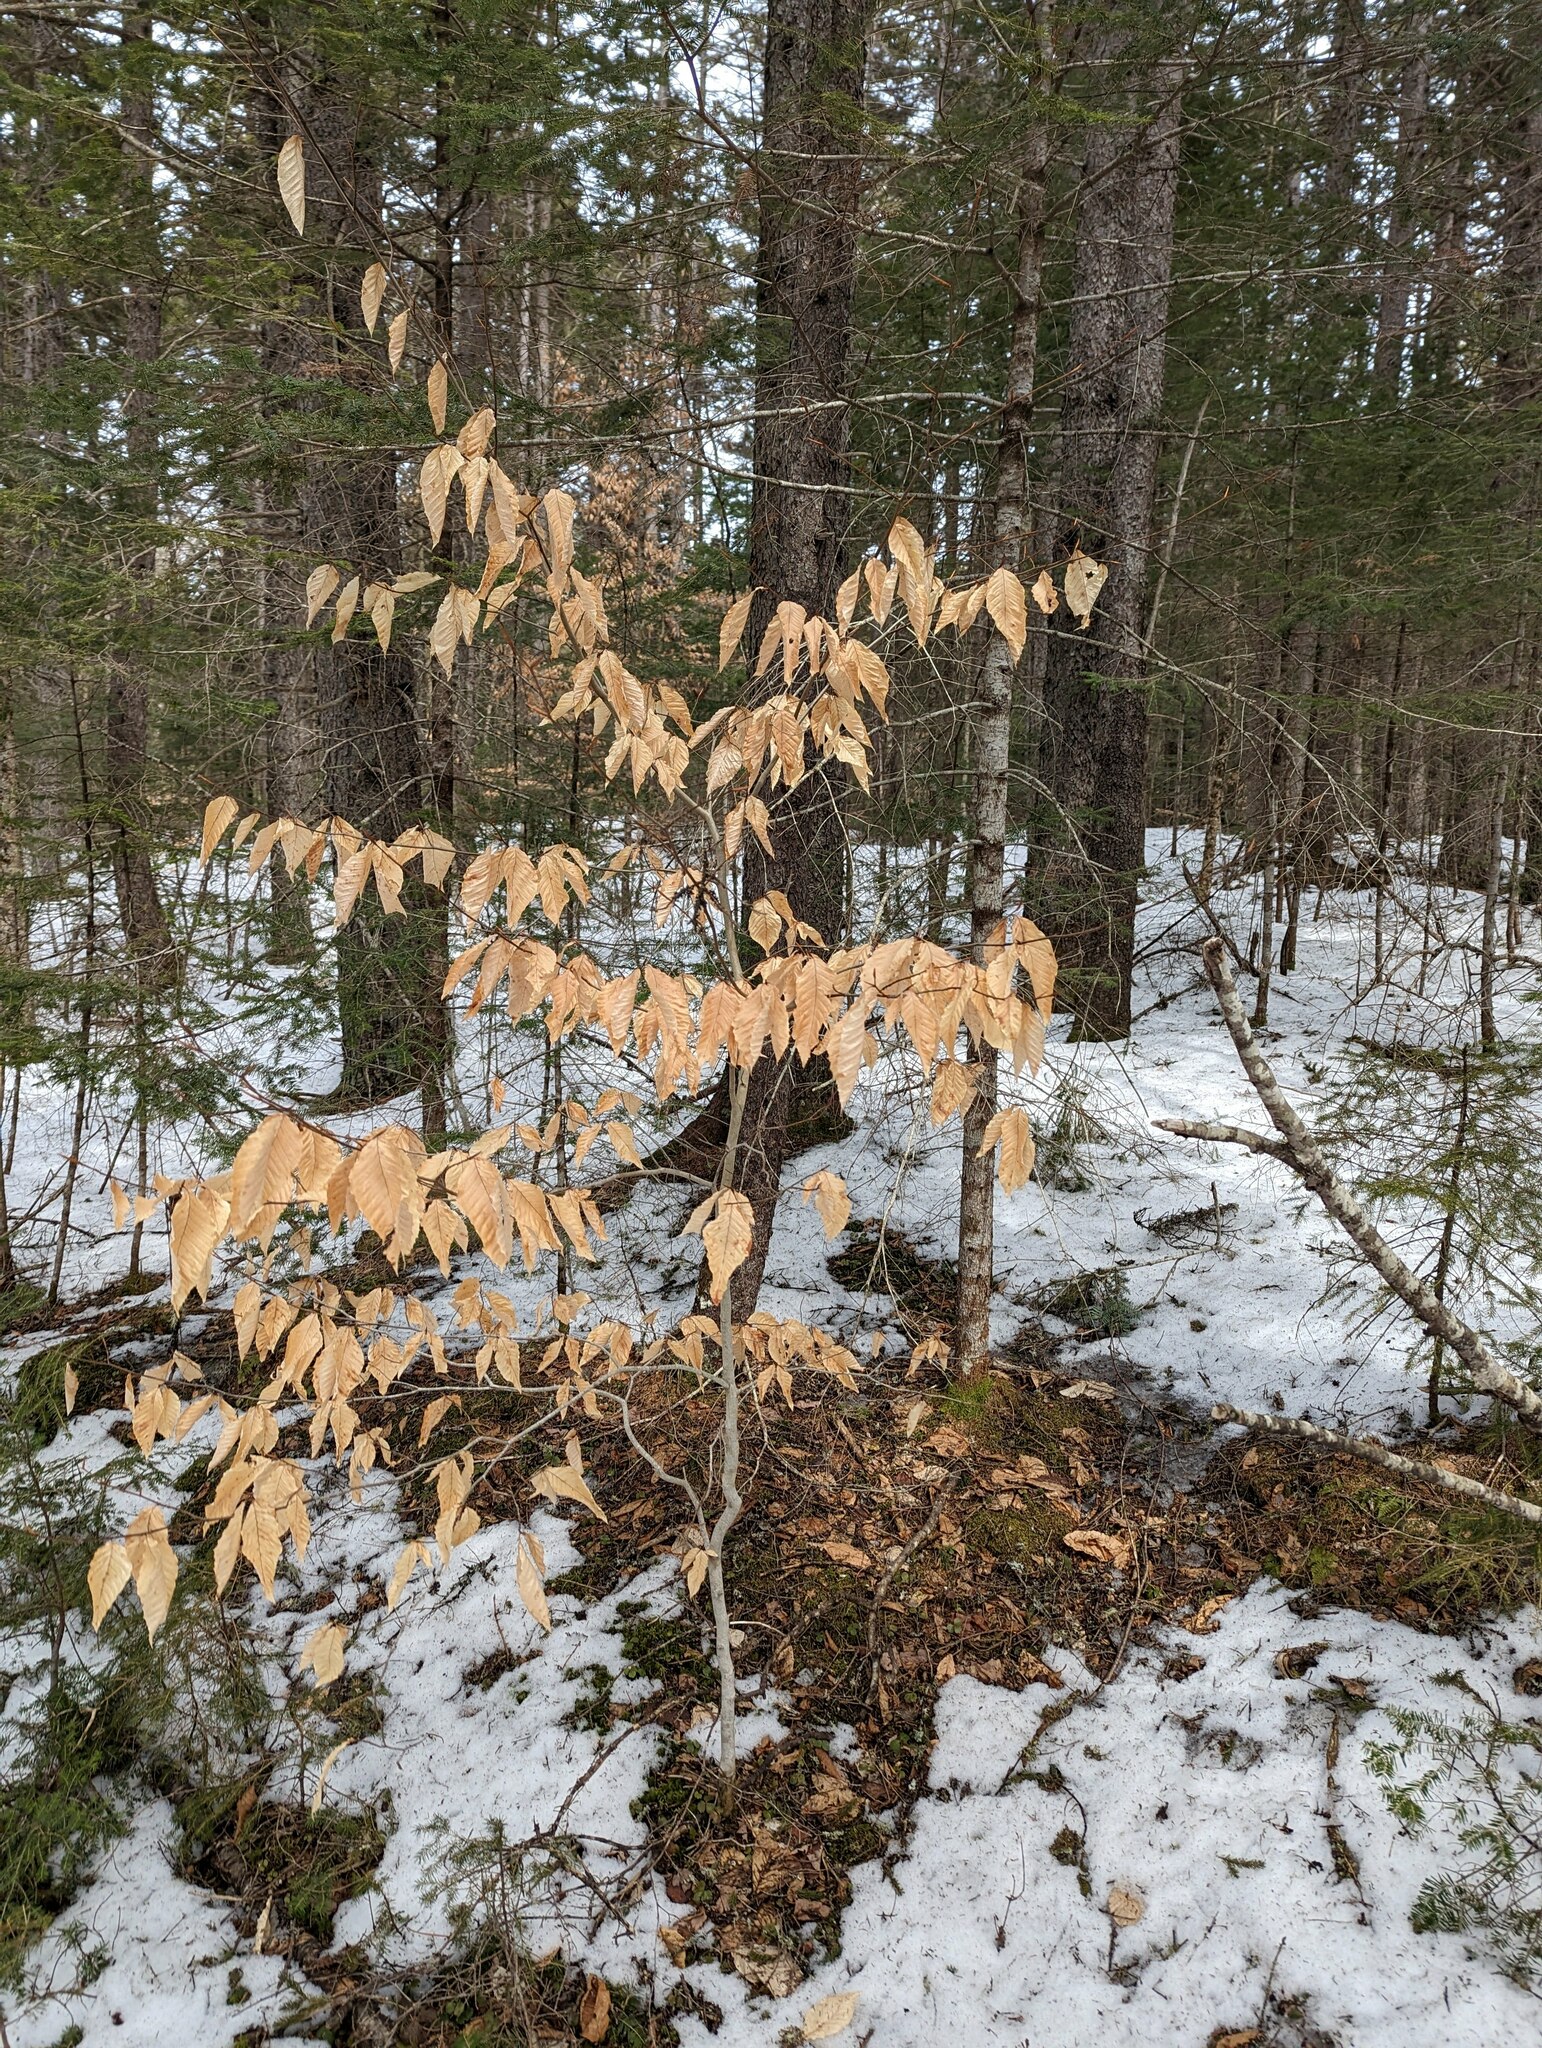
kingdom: Plantae
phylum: Tracheophyta
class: Magnoliopsida
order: Fagales
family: Fagaceae
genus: Fagus
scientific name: Fagus grandifolia
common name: American beech
